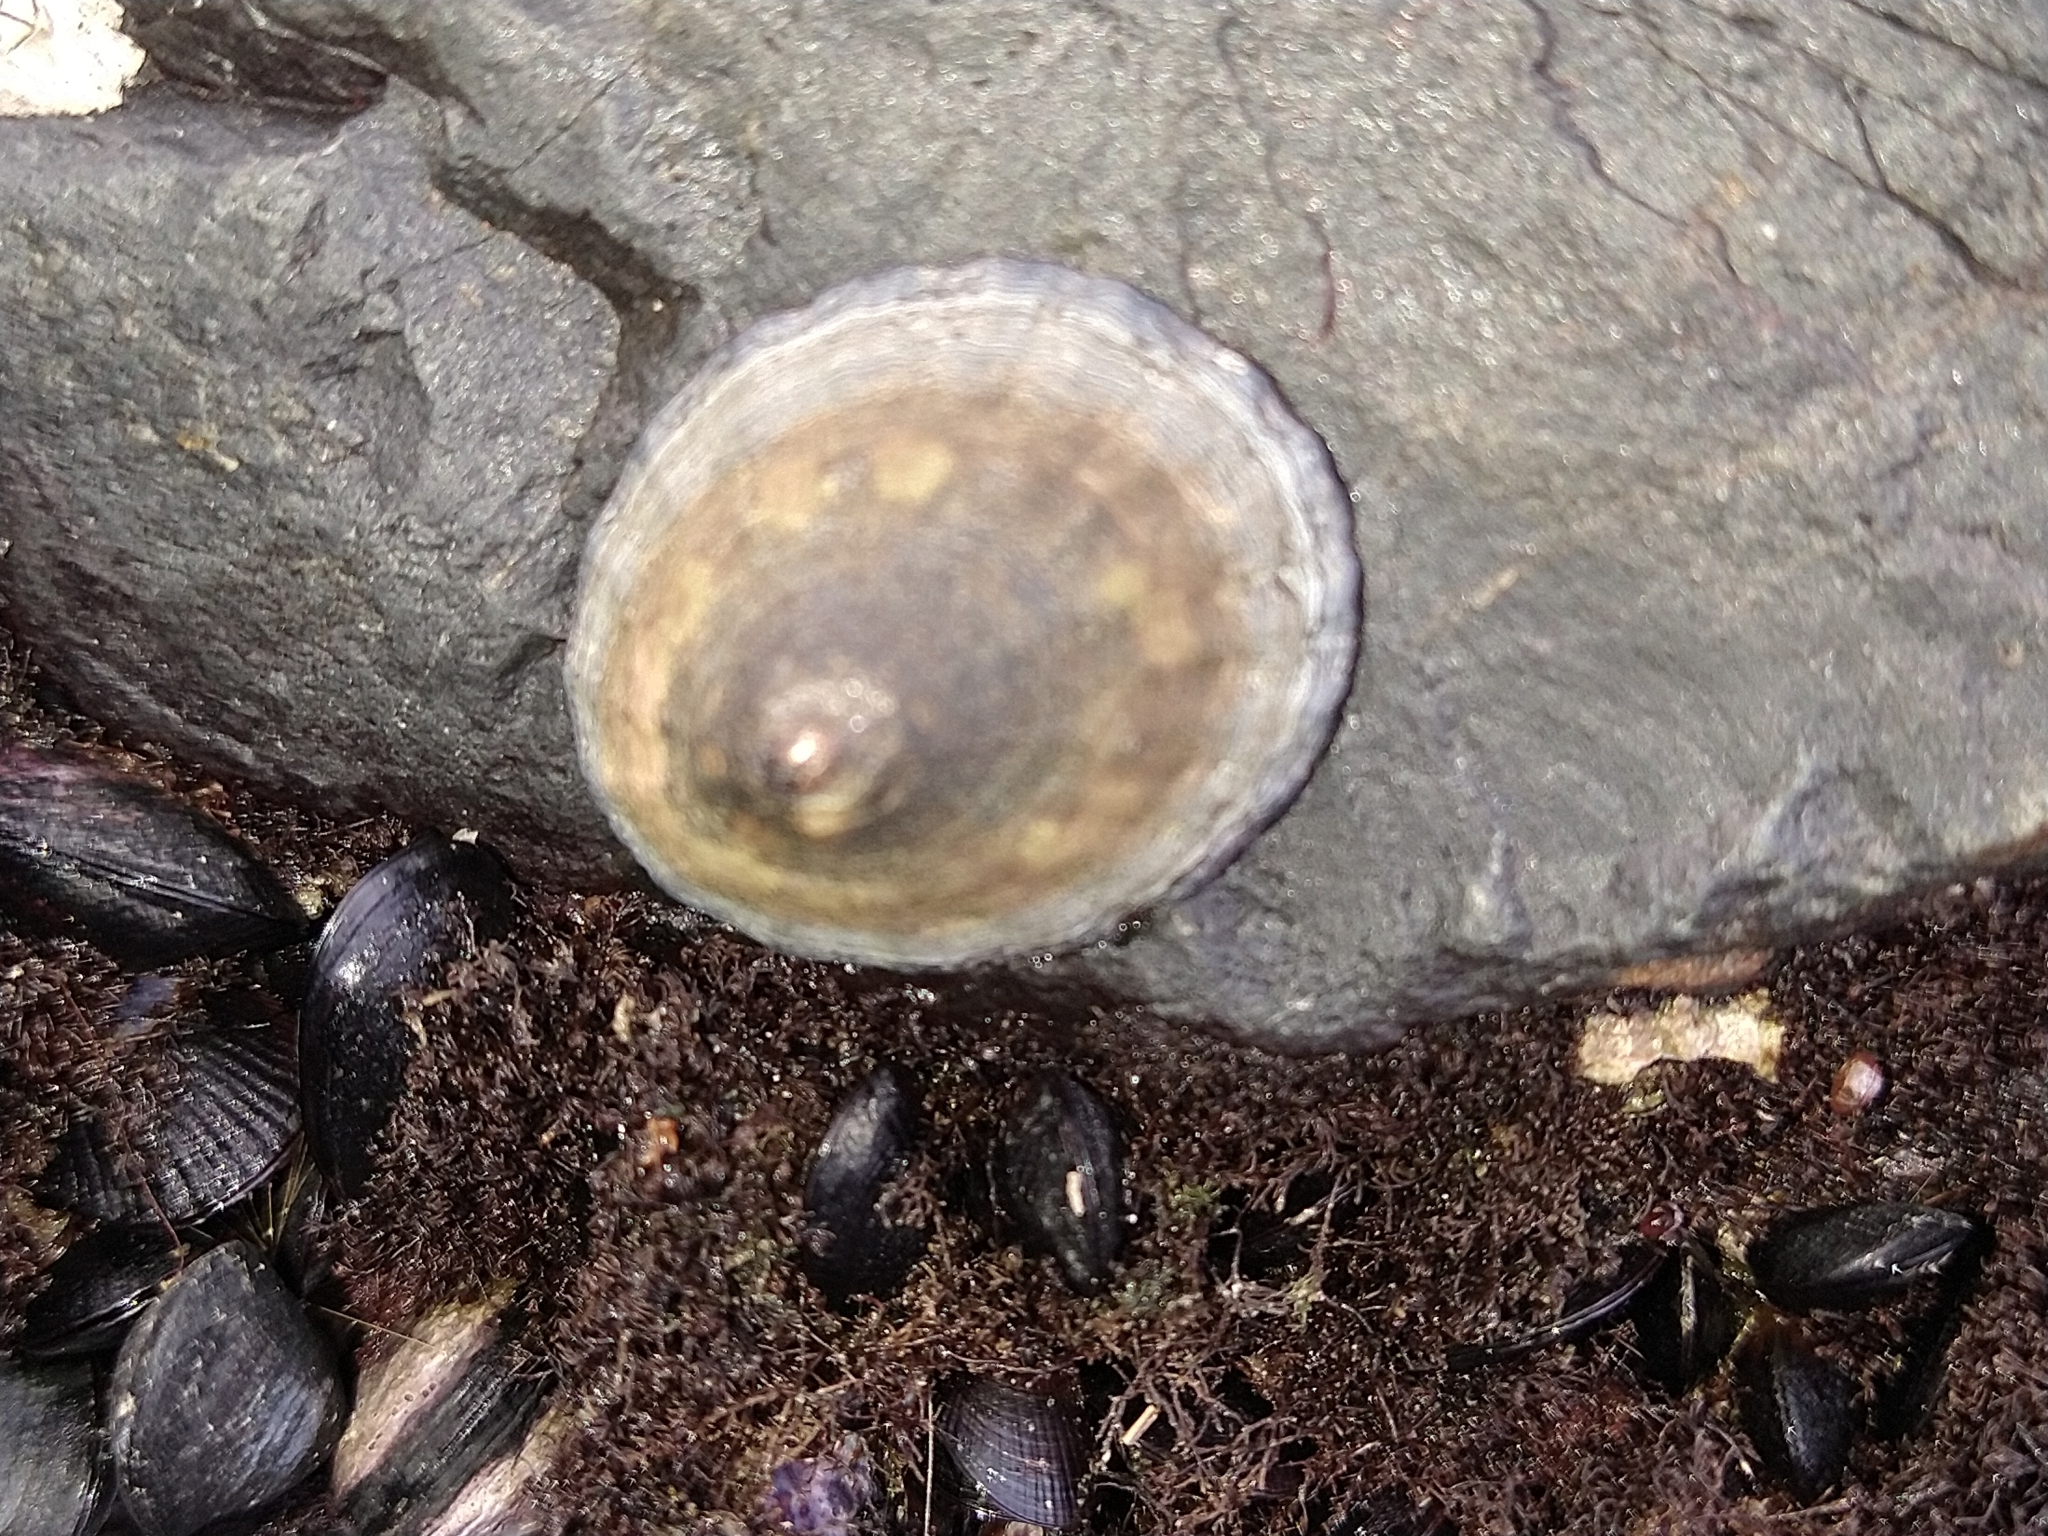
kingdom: Animalia
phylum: Mollusca
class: Gastropoda
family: Nacellidae
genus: Nacella
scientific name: Nacella magellanica
